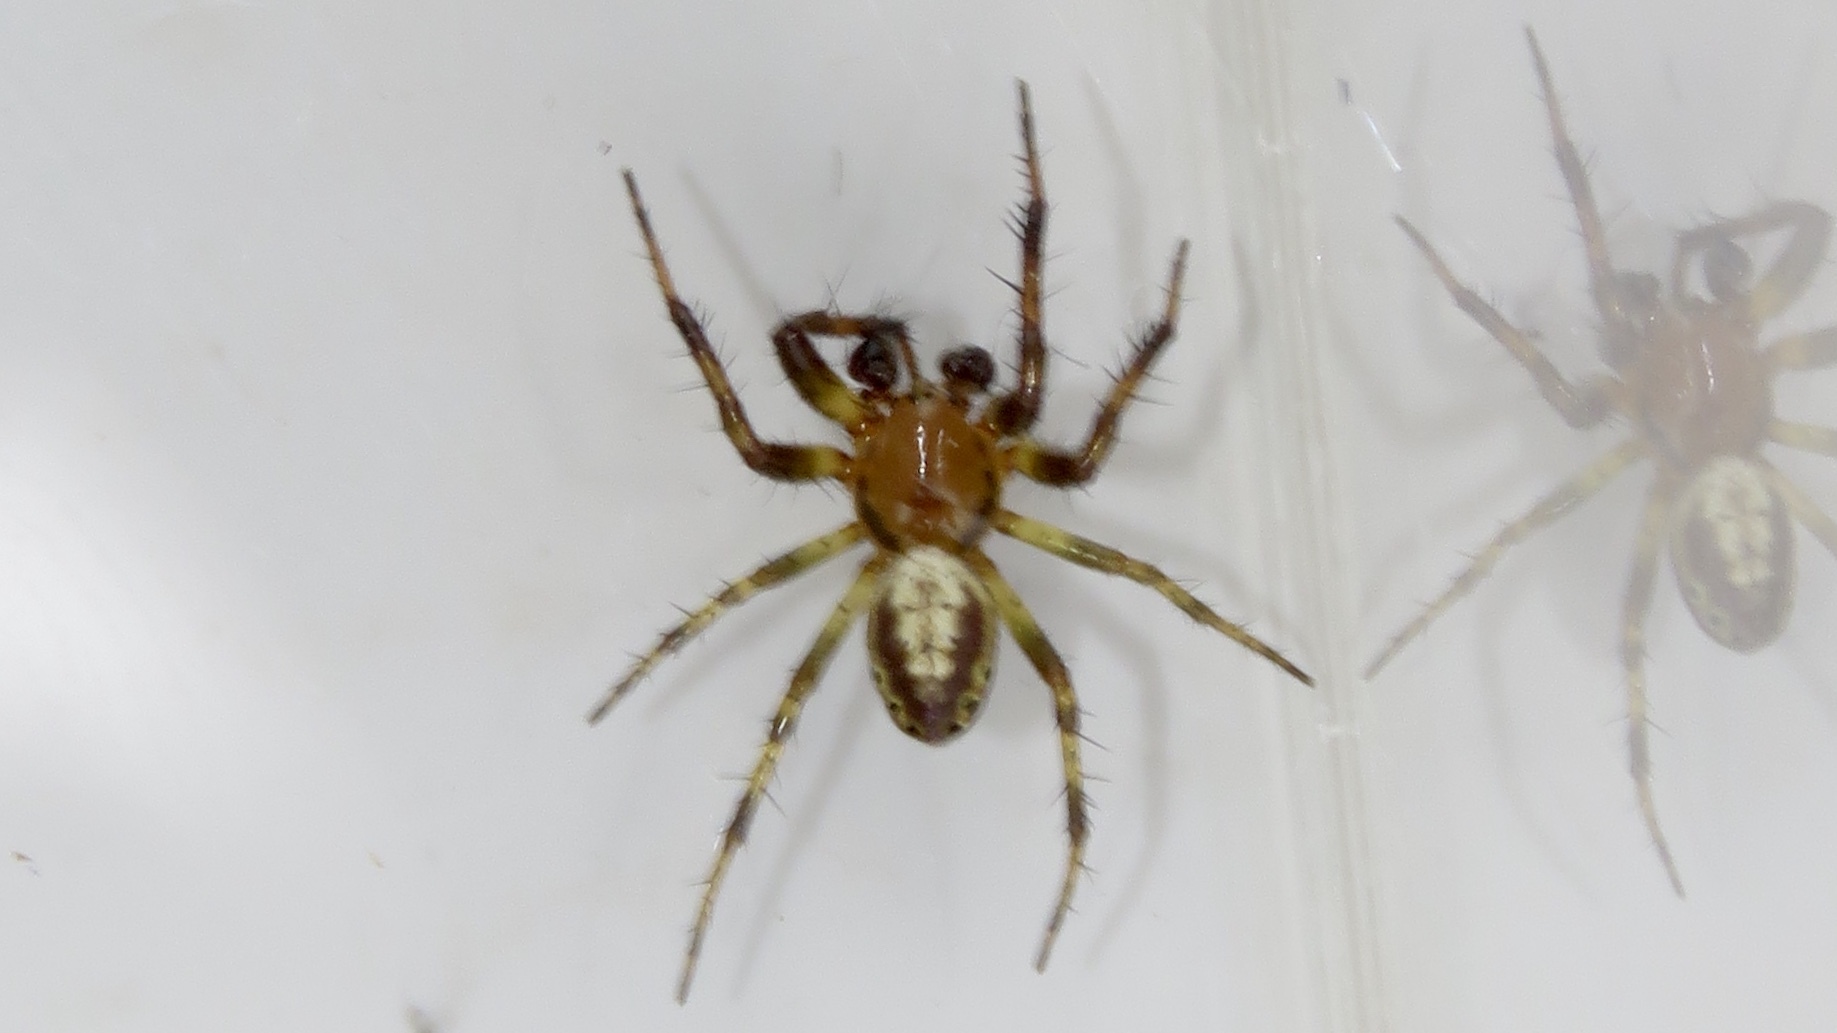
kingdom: Animalia
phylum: Arthropoda
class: Arachnida
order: Araneae
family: Araneidae
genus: Araniella
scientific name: Araniella displicata
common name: Sixspotted orb weaver
